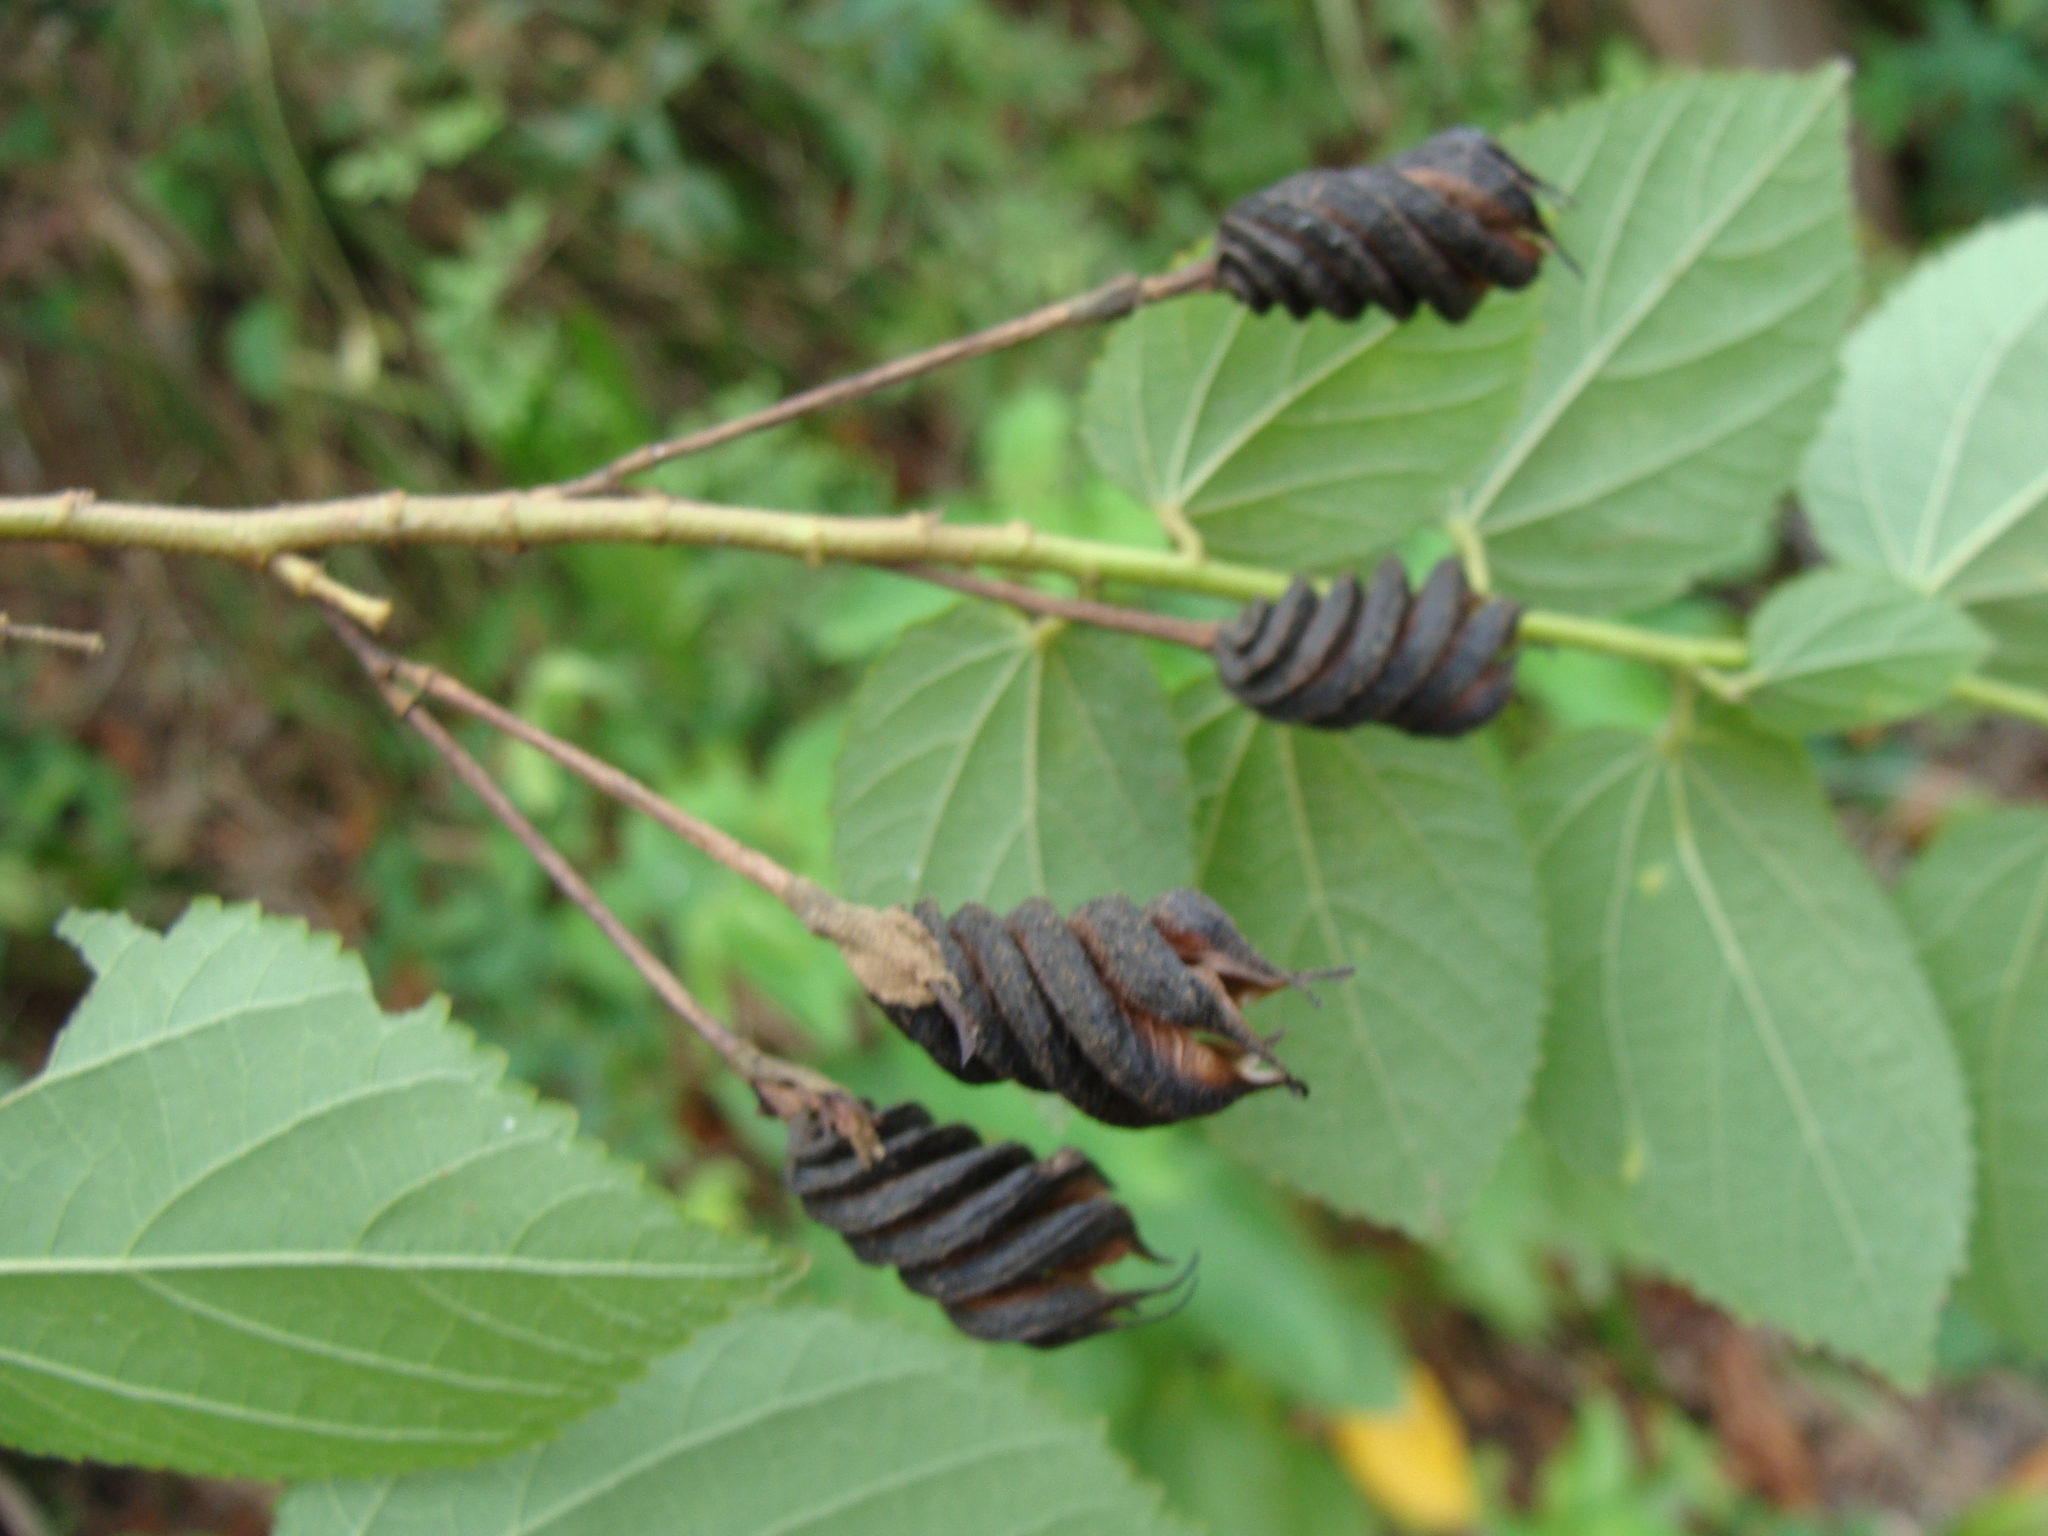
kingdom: Plantae
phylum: Tracheophyta
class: Magnoliopsida
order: Malvales
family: Malvaceae
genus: Helicteres
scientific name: Helicteres guazumifolia
